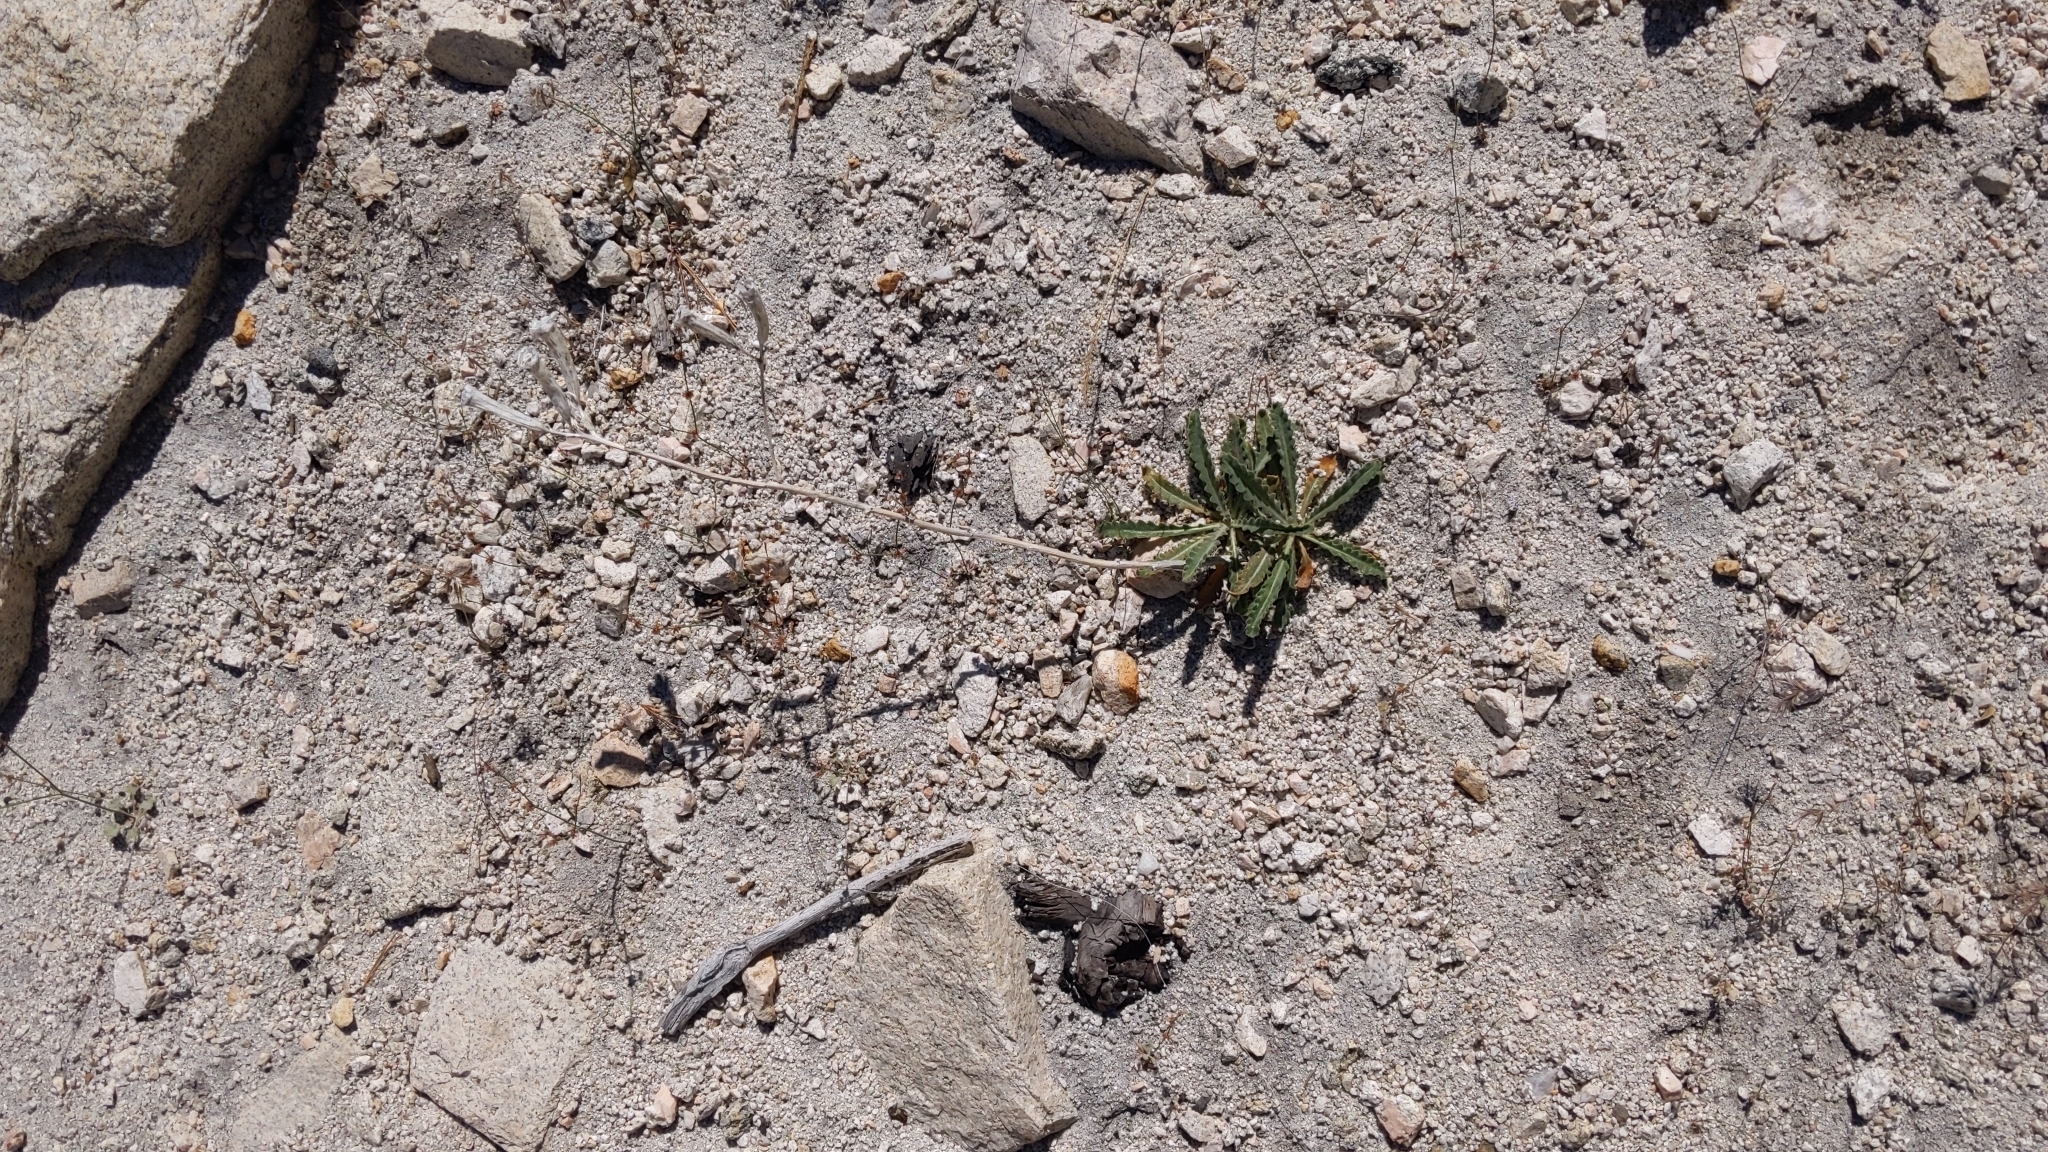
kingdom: Plantae
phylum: Tracheophyta
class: Magnoliopsida
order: Cornales
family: Loasaceae
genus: Mentzelia
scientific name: Mentzelia laevicaulis
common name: Smooth-stem blazingstar
